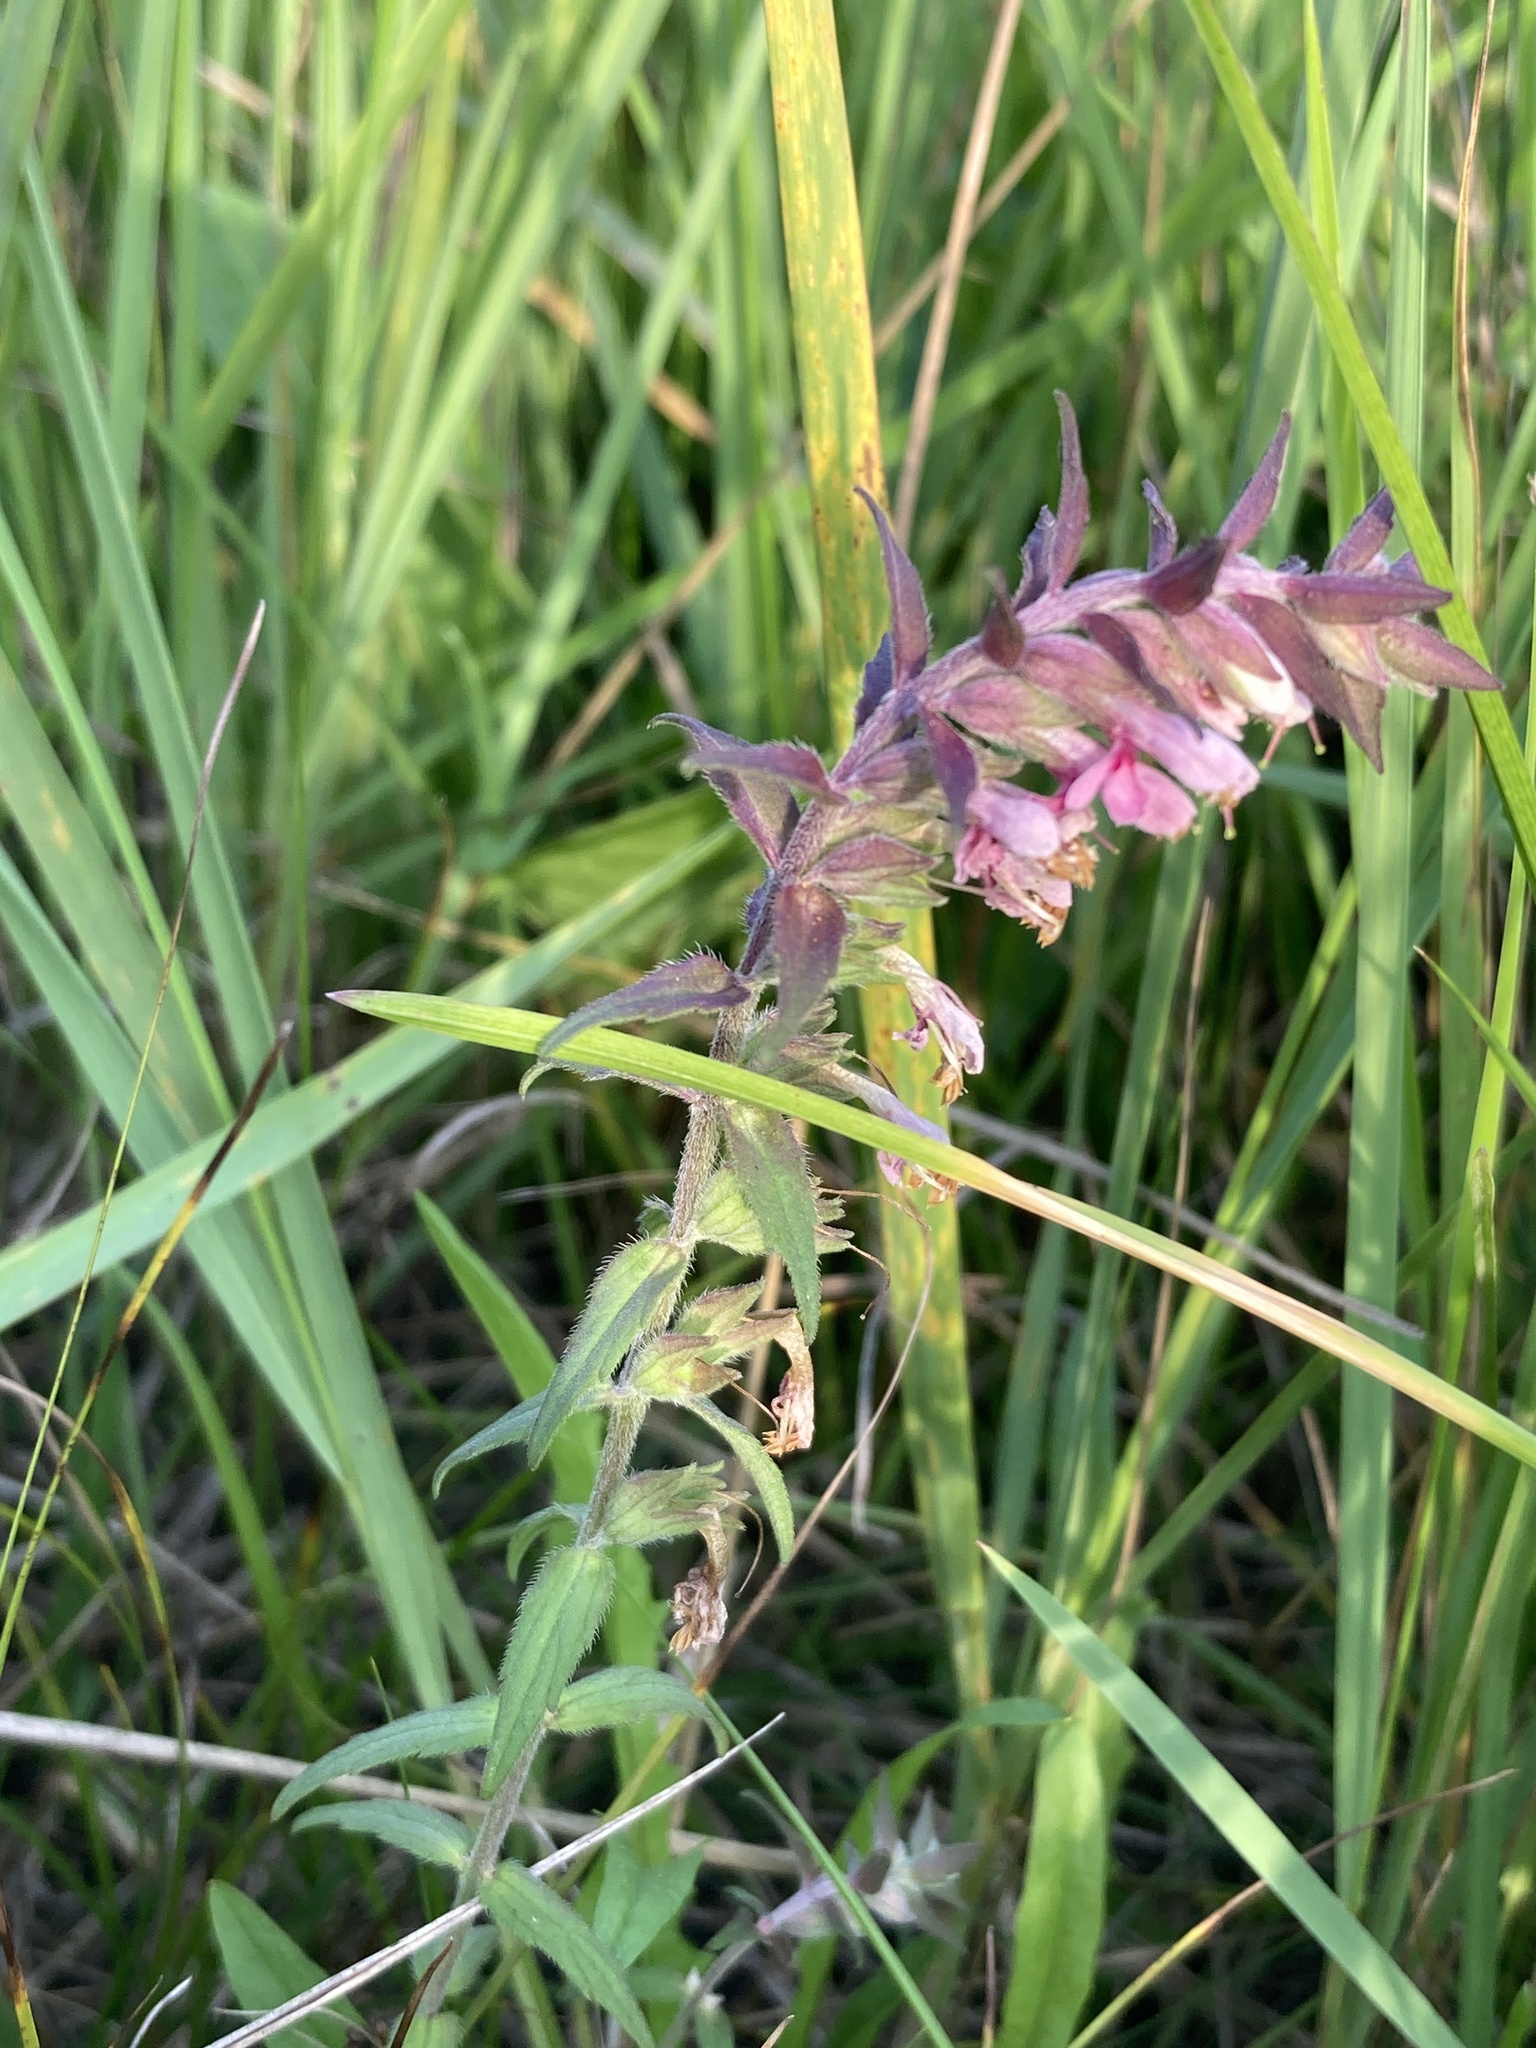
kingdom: Plantae
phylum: Tracheophyta
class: Magnoliopsida
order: Lamiales
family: Orobanchaceae
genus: Odontites
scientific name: Odontites vulgaris
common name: Broomrape
